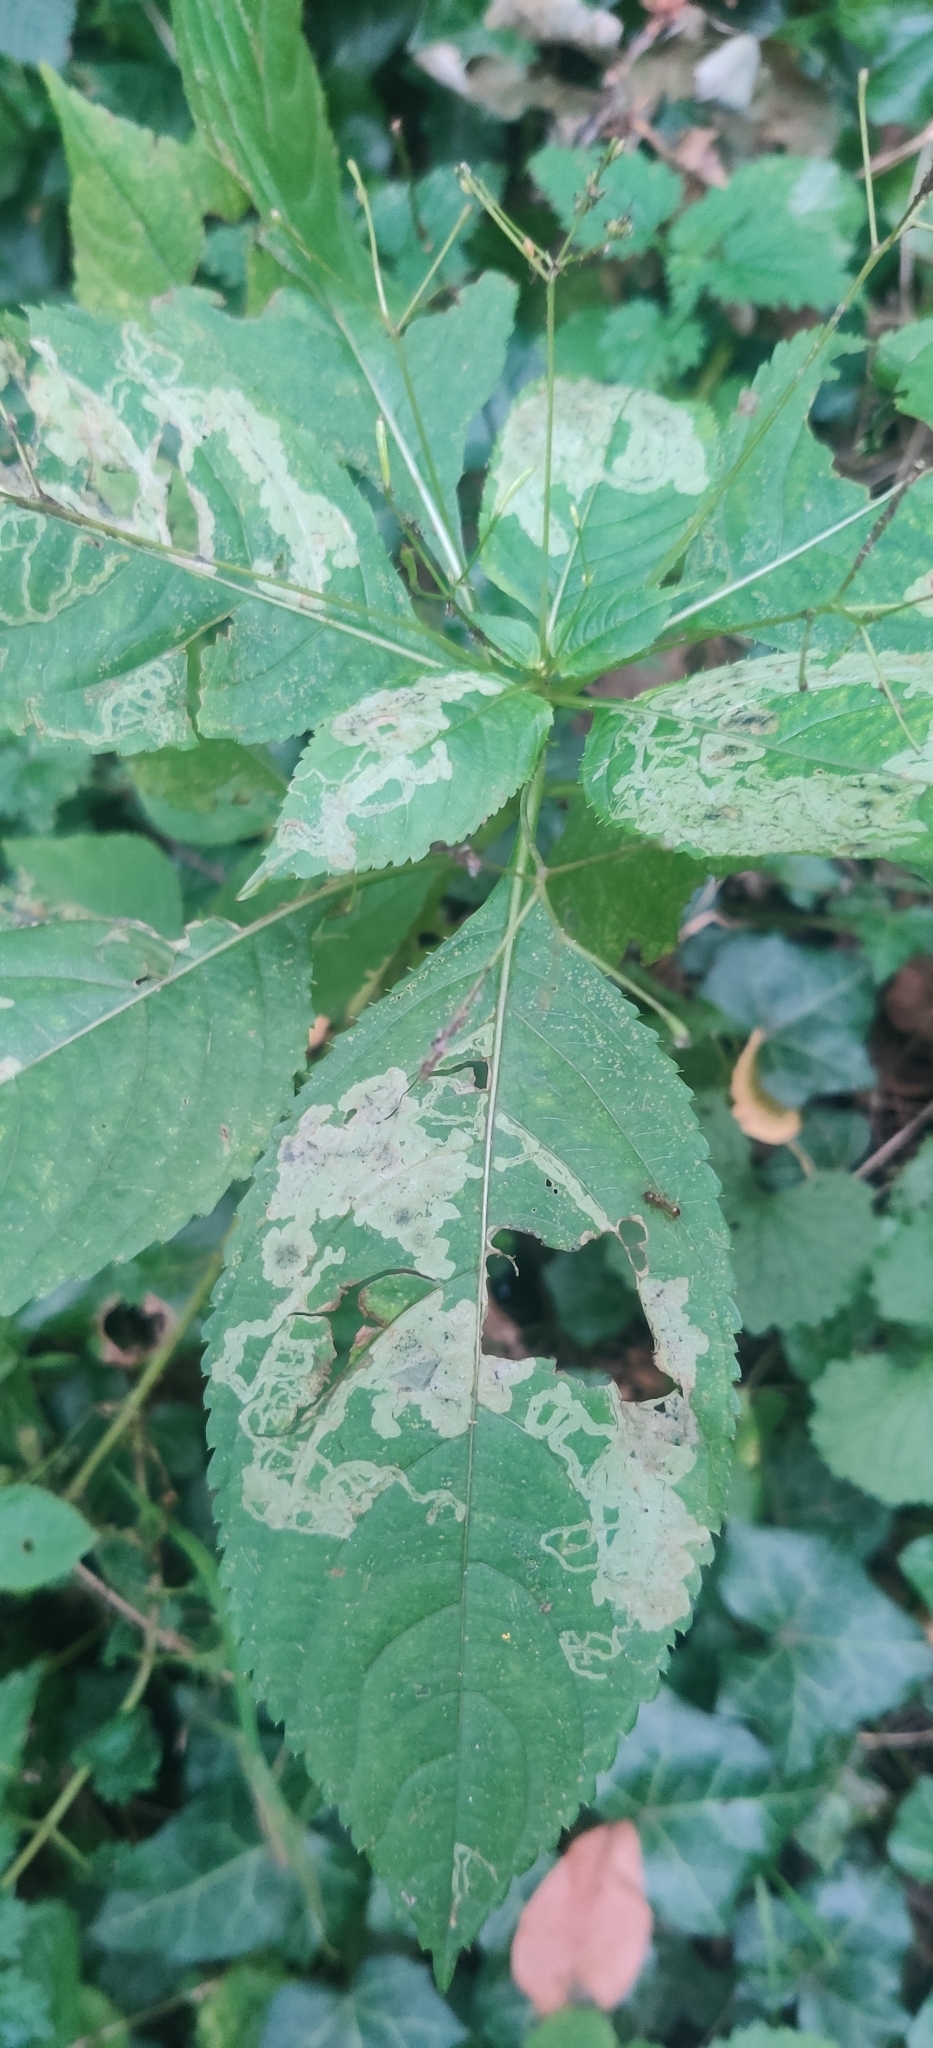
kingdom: Animalia
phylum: Arthropoda
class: Insecta
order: Diptera
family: Agromyzidae
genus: Phytoliriomyza
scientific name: Phytoliriomyza melampyga
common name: Jewelweed leaf-miner fly
